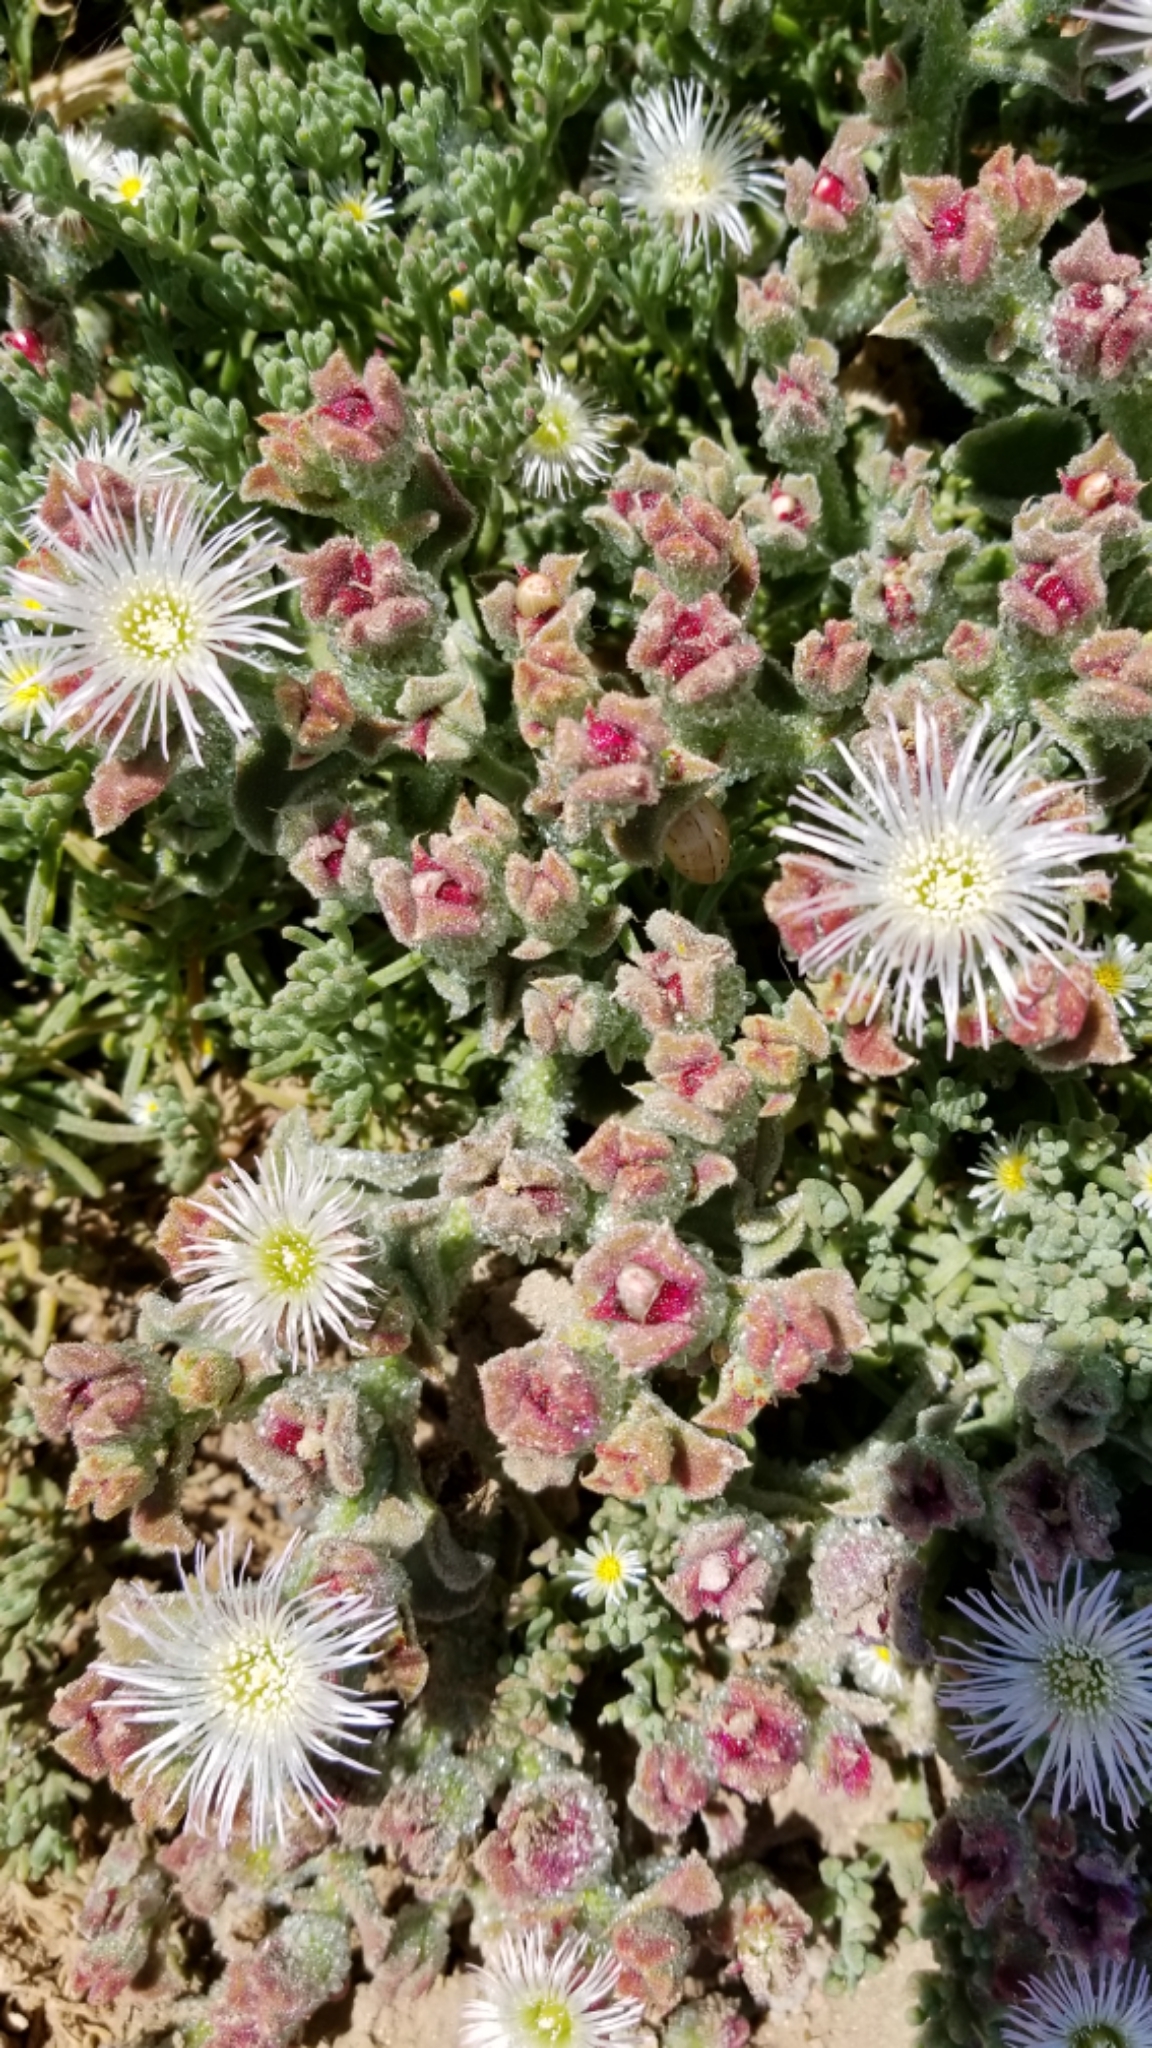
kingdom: Plantae
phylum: Tracheophyta
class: Magnoliopsida
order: Caryophyllales
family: Aizoaceae
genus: Mesembryanthemum
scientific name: Mesembryanthemum crystallinum
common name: Common iceplant
